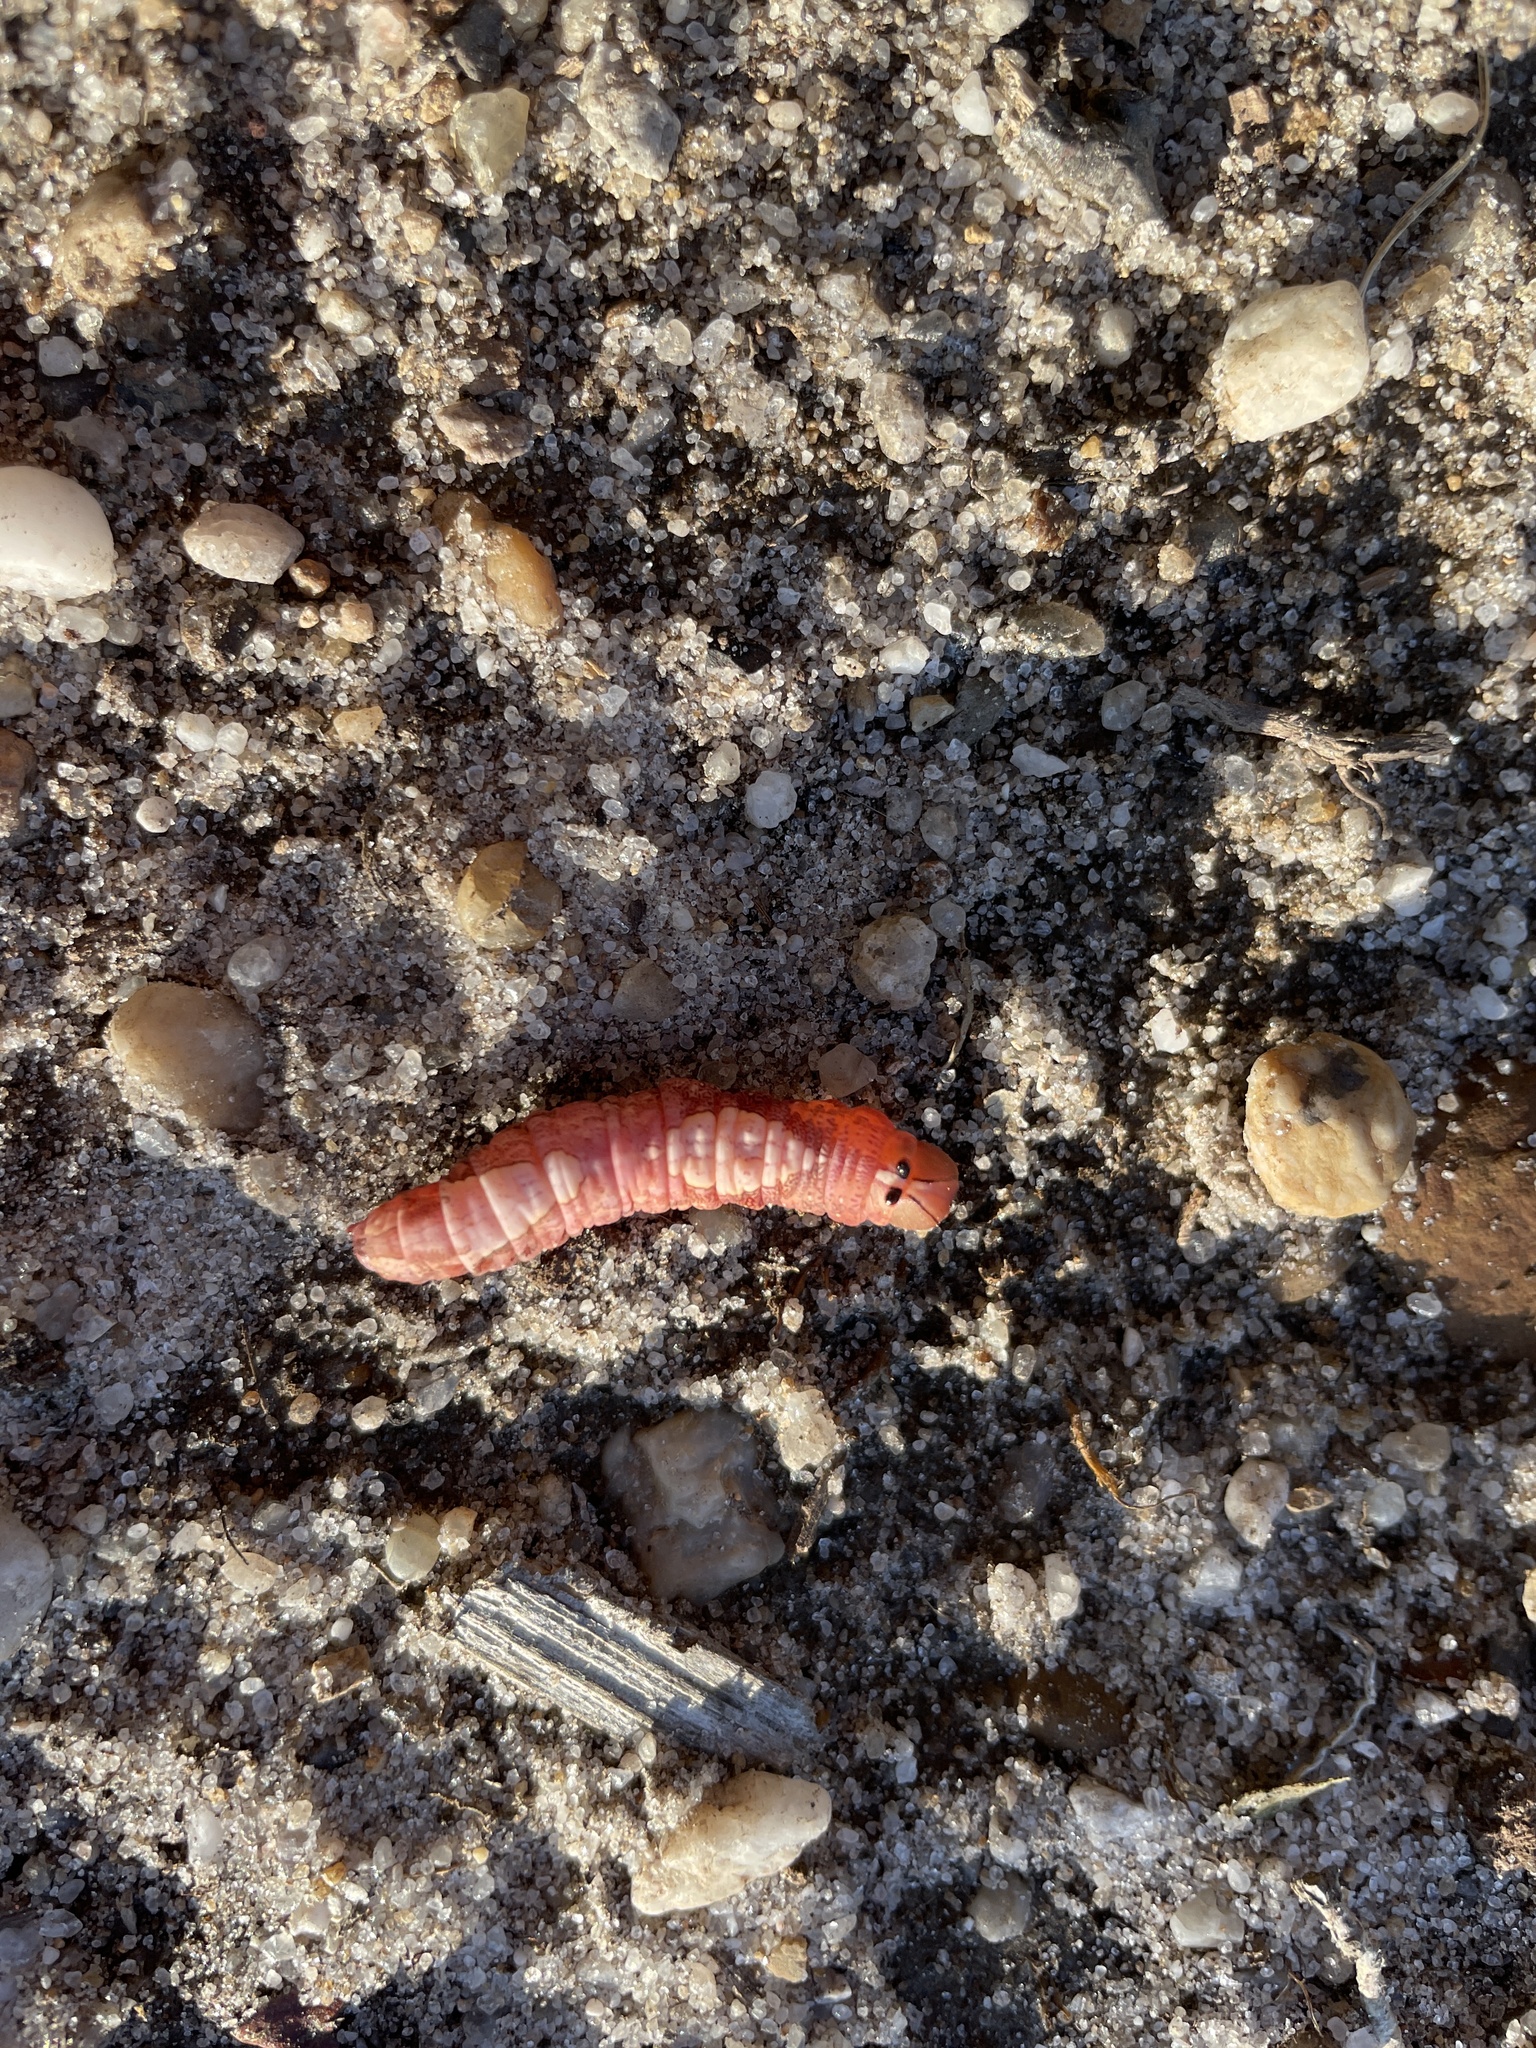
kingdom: Animalia
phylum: Arthropoda
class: Insecta
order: Lepidoptera
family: Notodontidae
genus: Heterocampa
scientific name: Heterocampa
